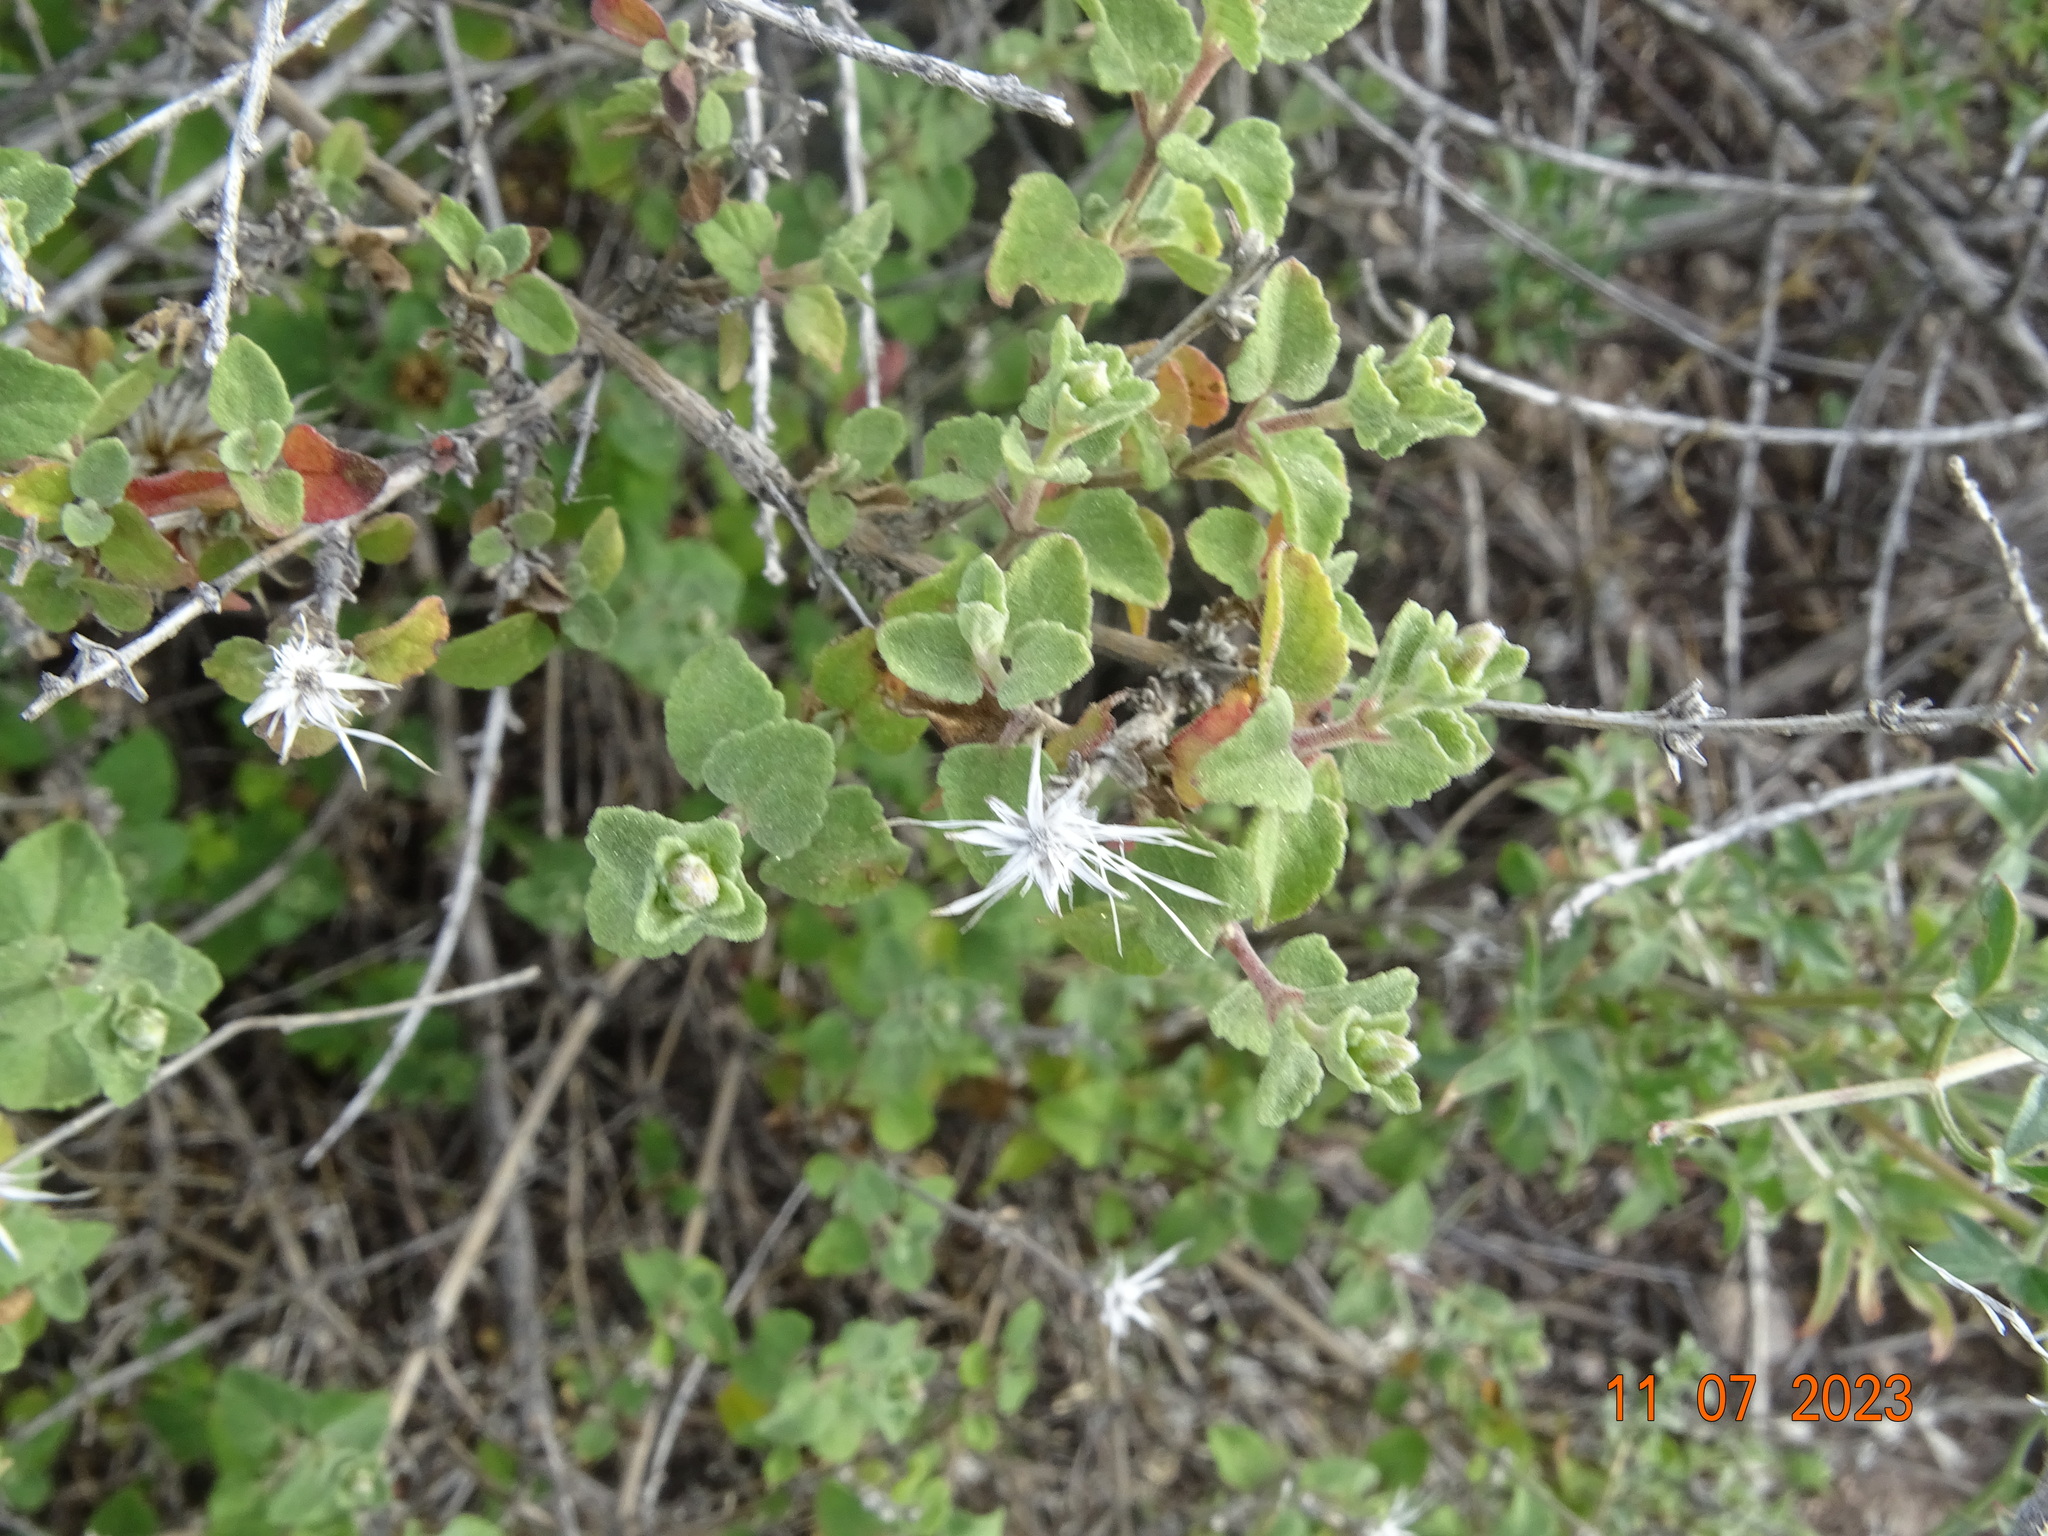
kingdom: Plantae
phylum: Tracheophyta
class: Magnoliopsida
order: Asterales
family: Asteraceae
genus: Brickellia
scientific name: Brickellia veronicifolia
